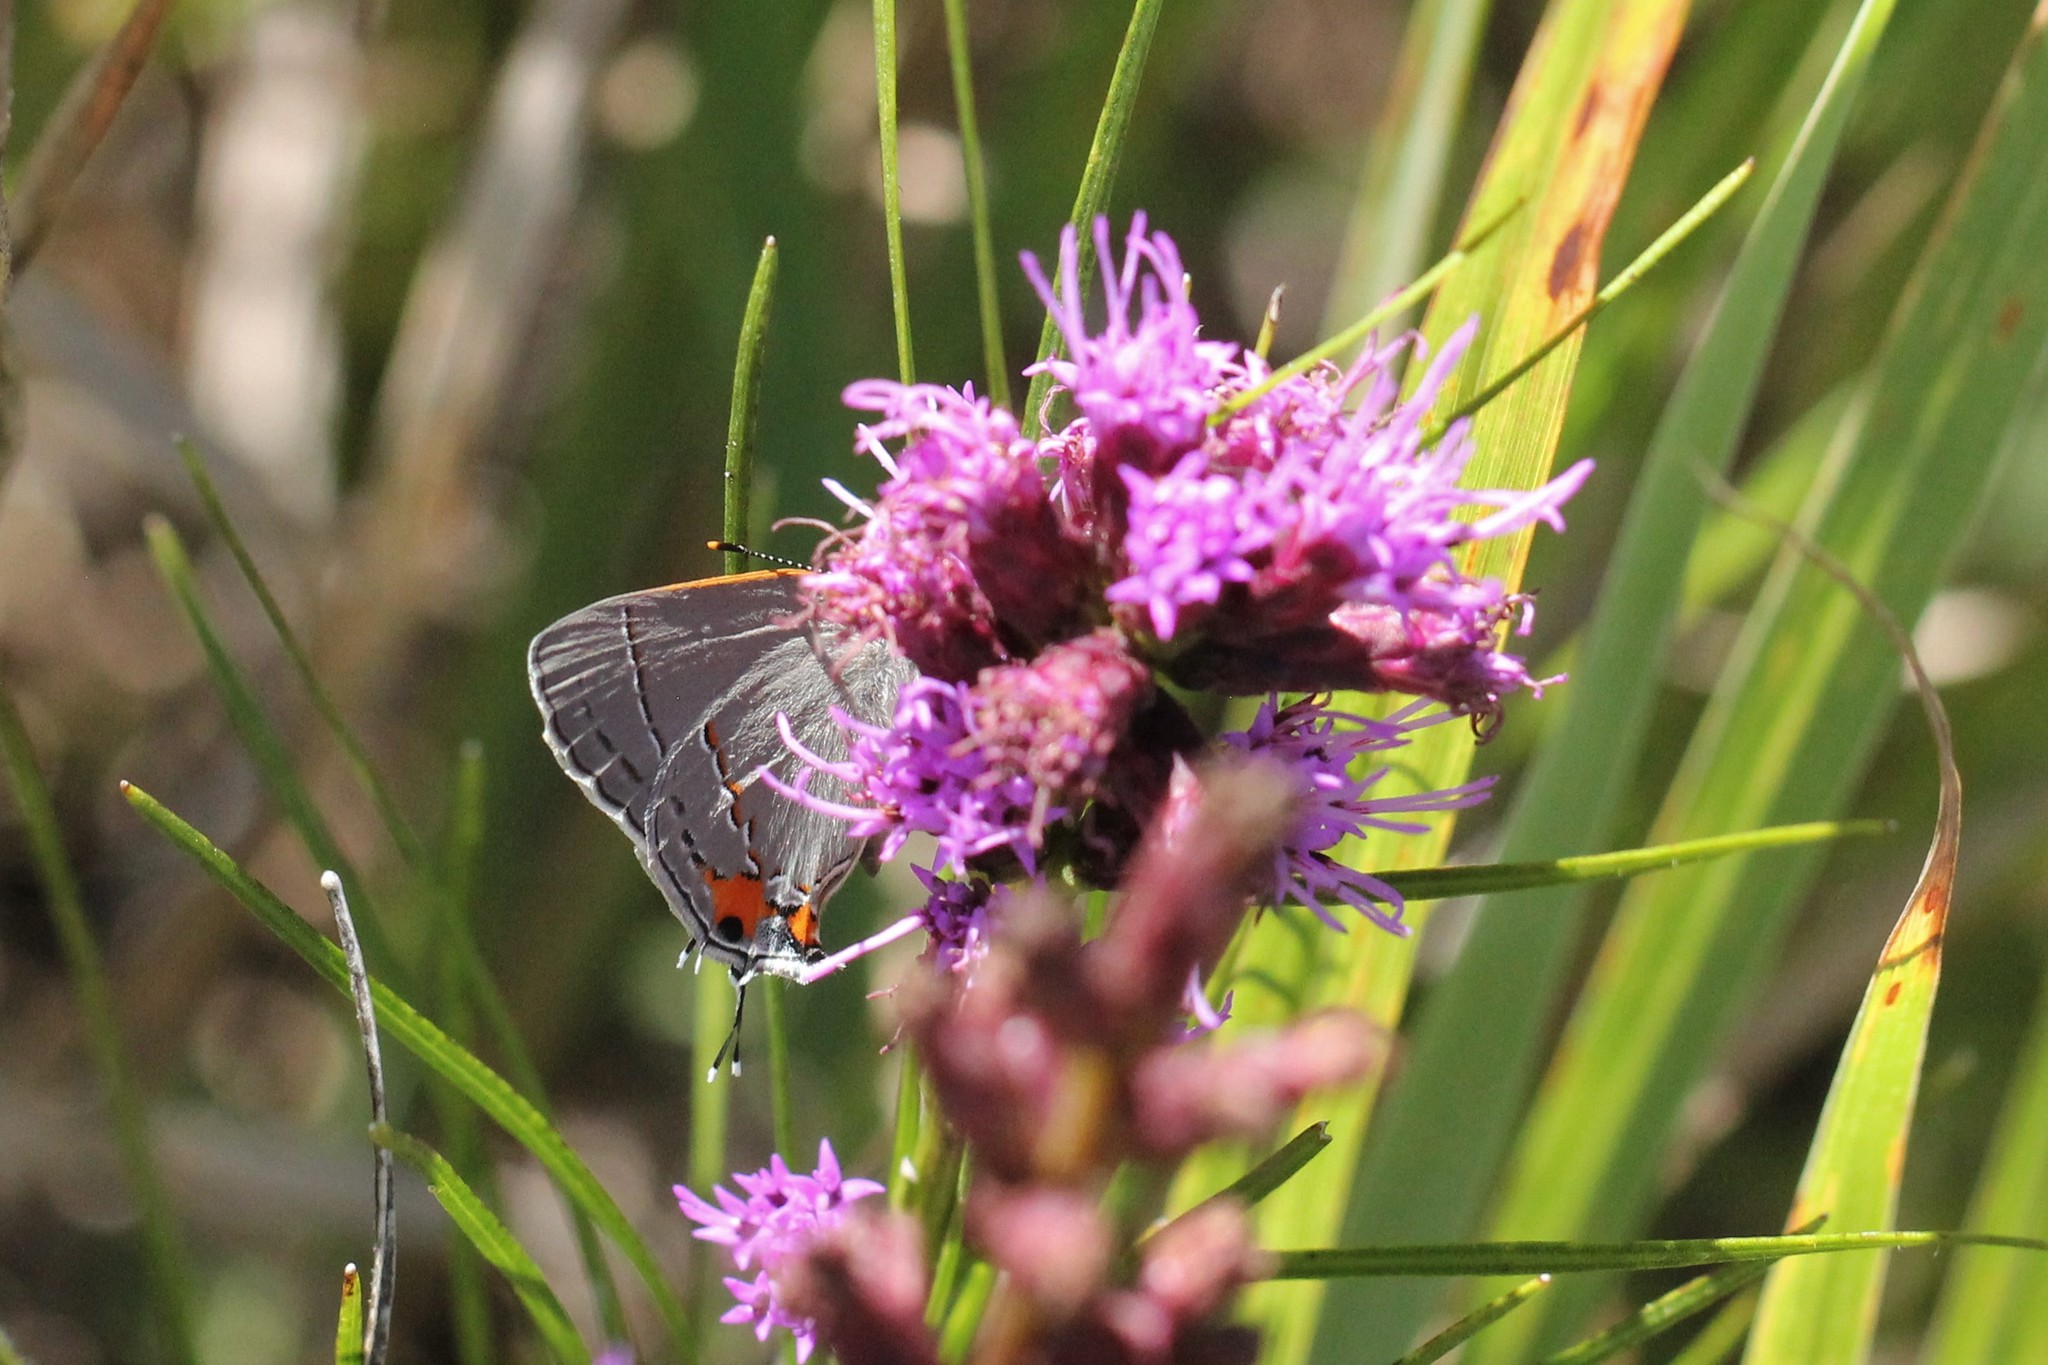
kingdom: Animalia
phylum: Arthropoda
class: Insecta
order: Lepidoptera
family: Lycaenidae
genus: Strymon
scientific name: Strymon melinus
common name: Gray hairstreak
